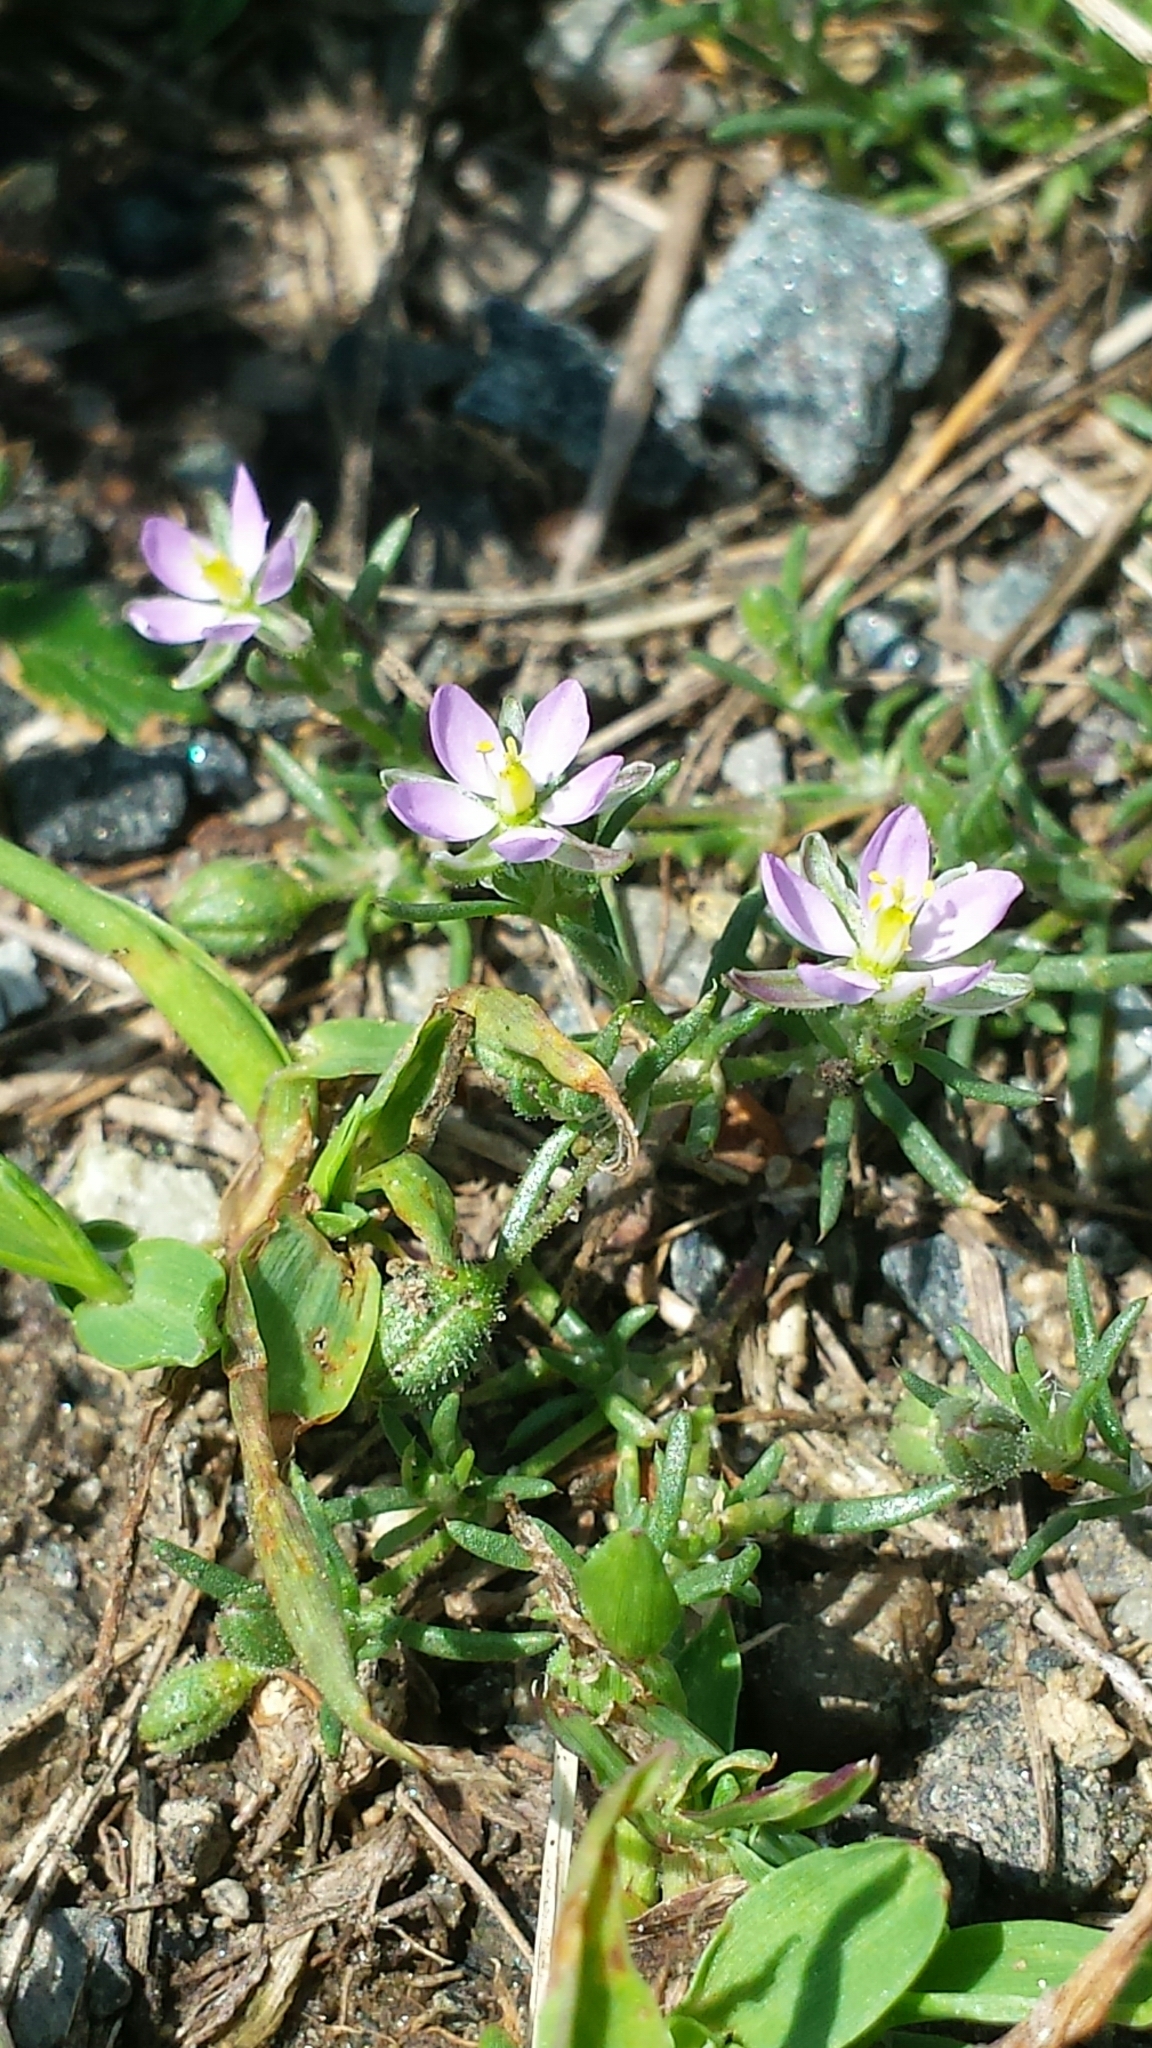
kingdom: Plantae
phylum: Tracheophyta
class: Magnoliopsida
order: Caryophyllales
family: Caryophyllaceae
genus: Spergularia
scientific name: Spergularia rubra
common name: Red sand-spurrey
